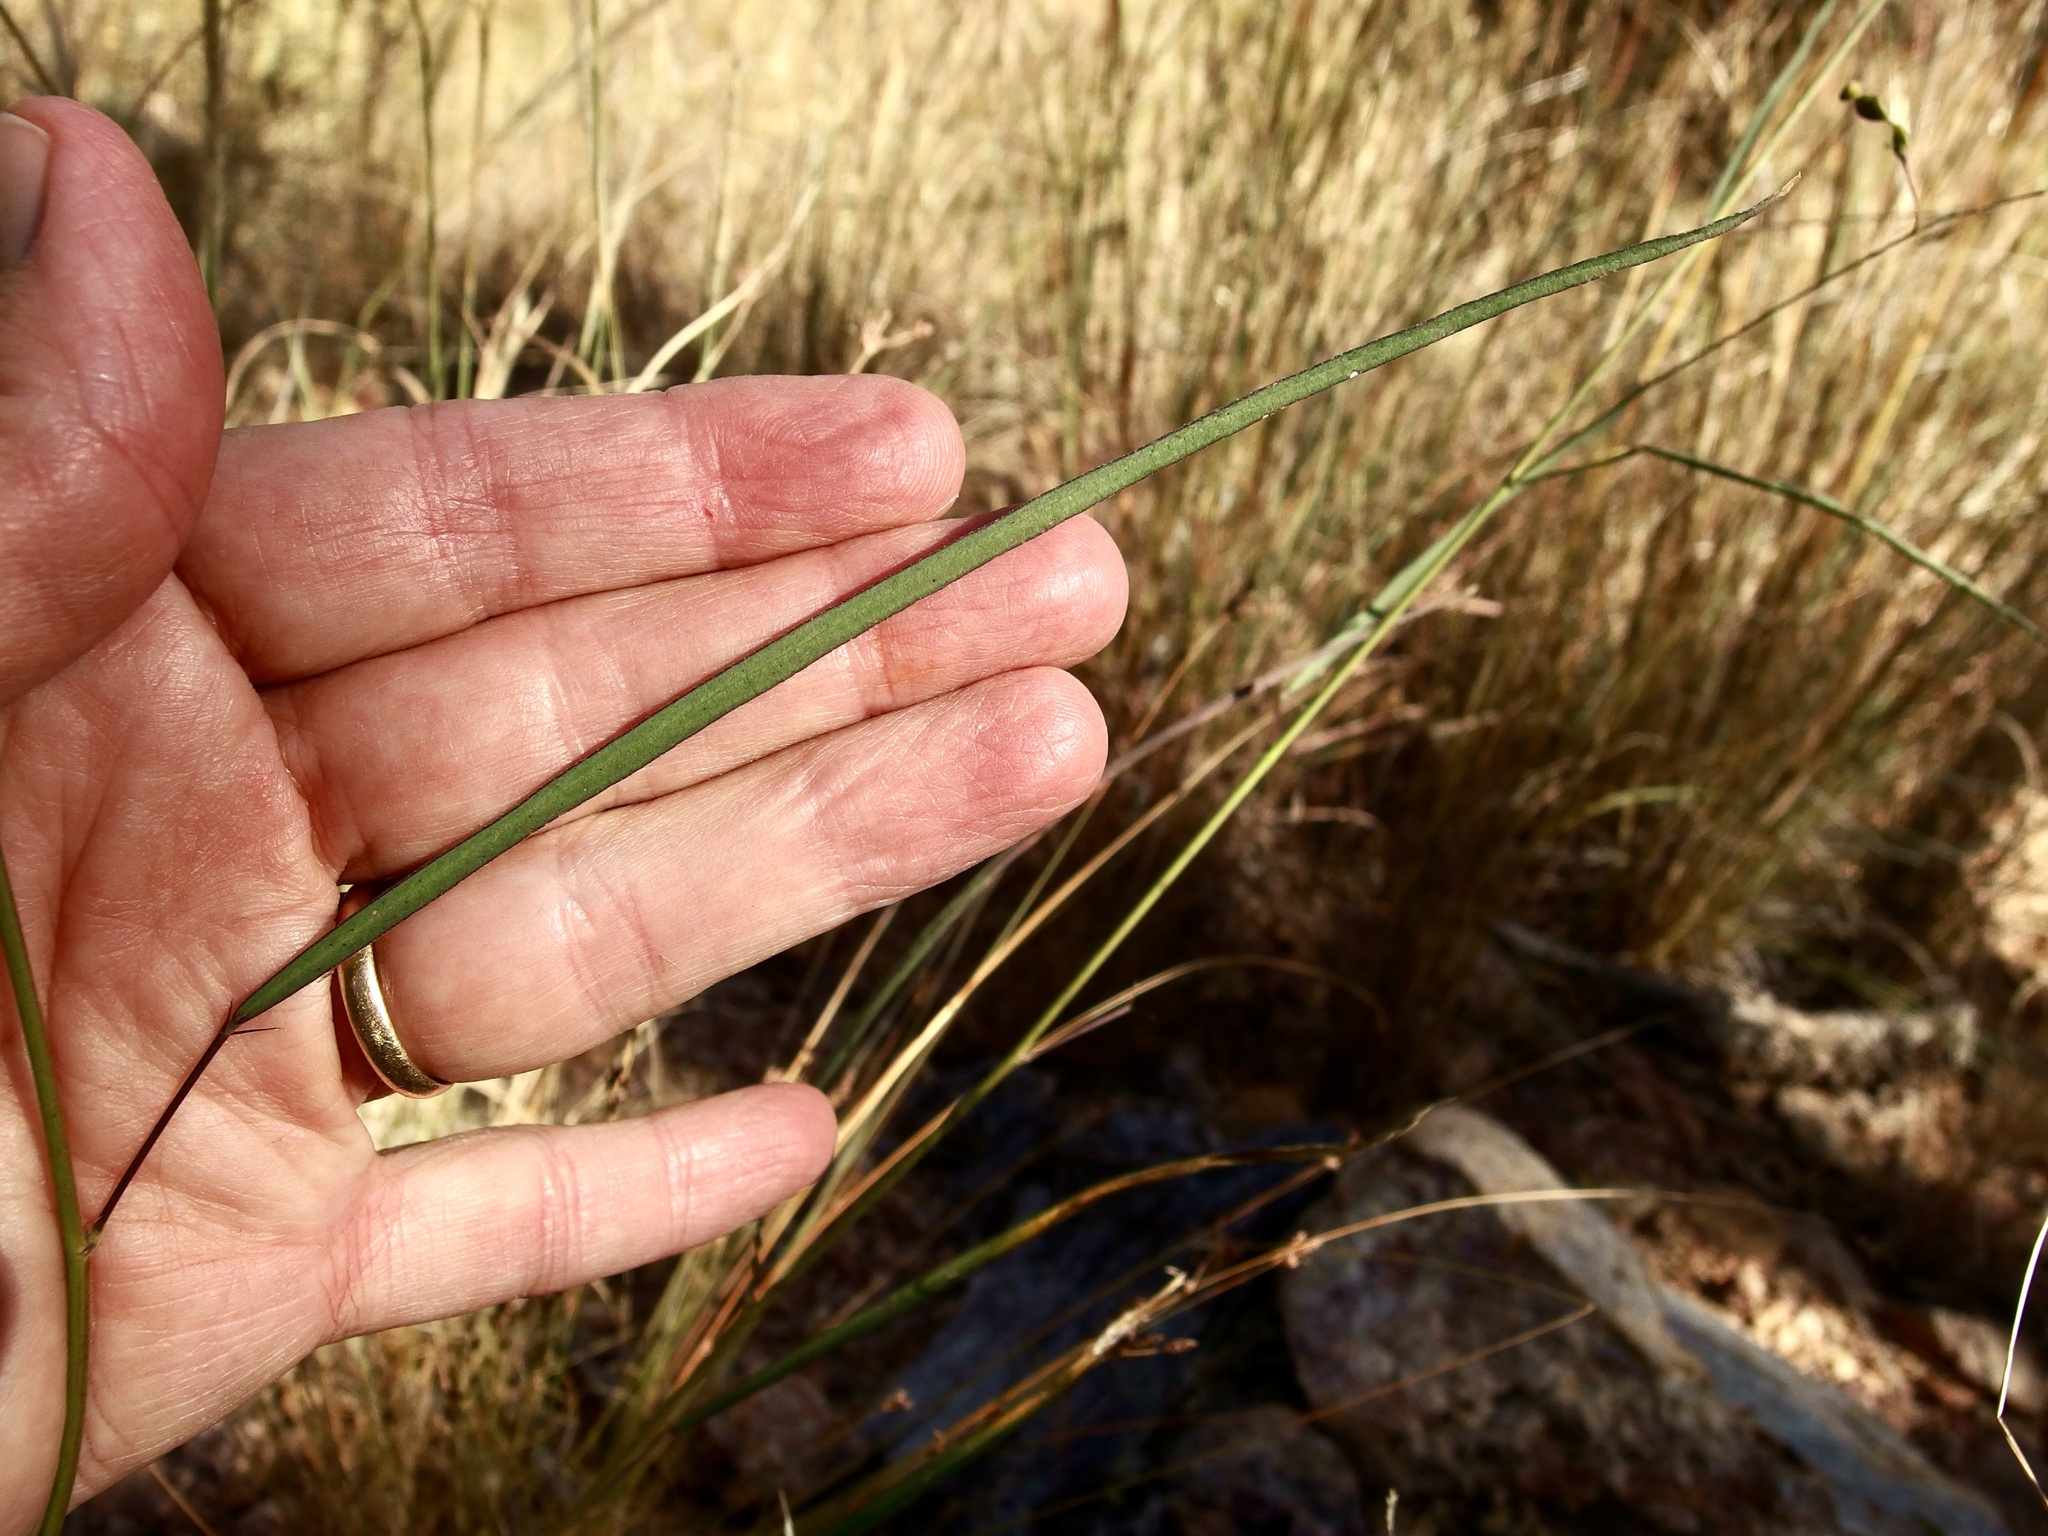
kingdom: Plantae
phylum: Tracheophyta
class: Magnoliopsida
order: Fabales
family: Fabaceae
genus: Desmodium
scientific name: Desmodium angustifolium
